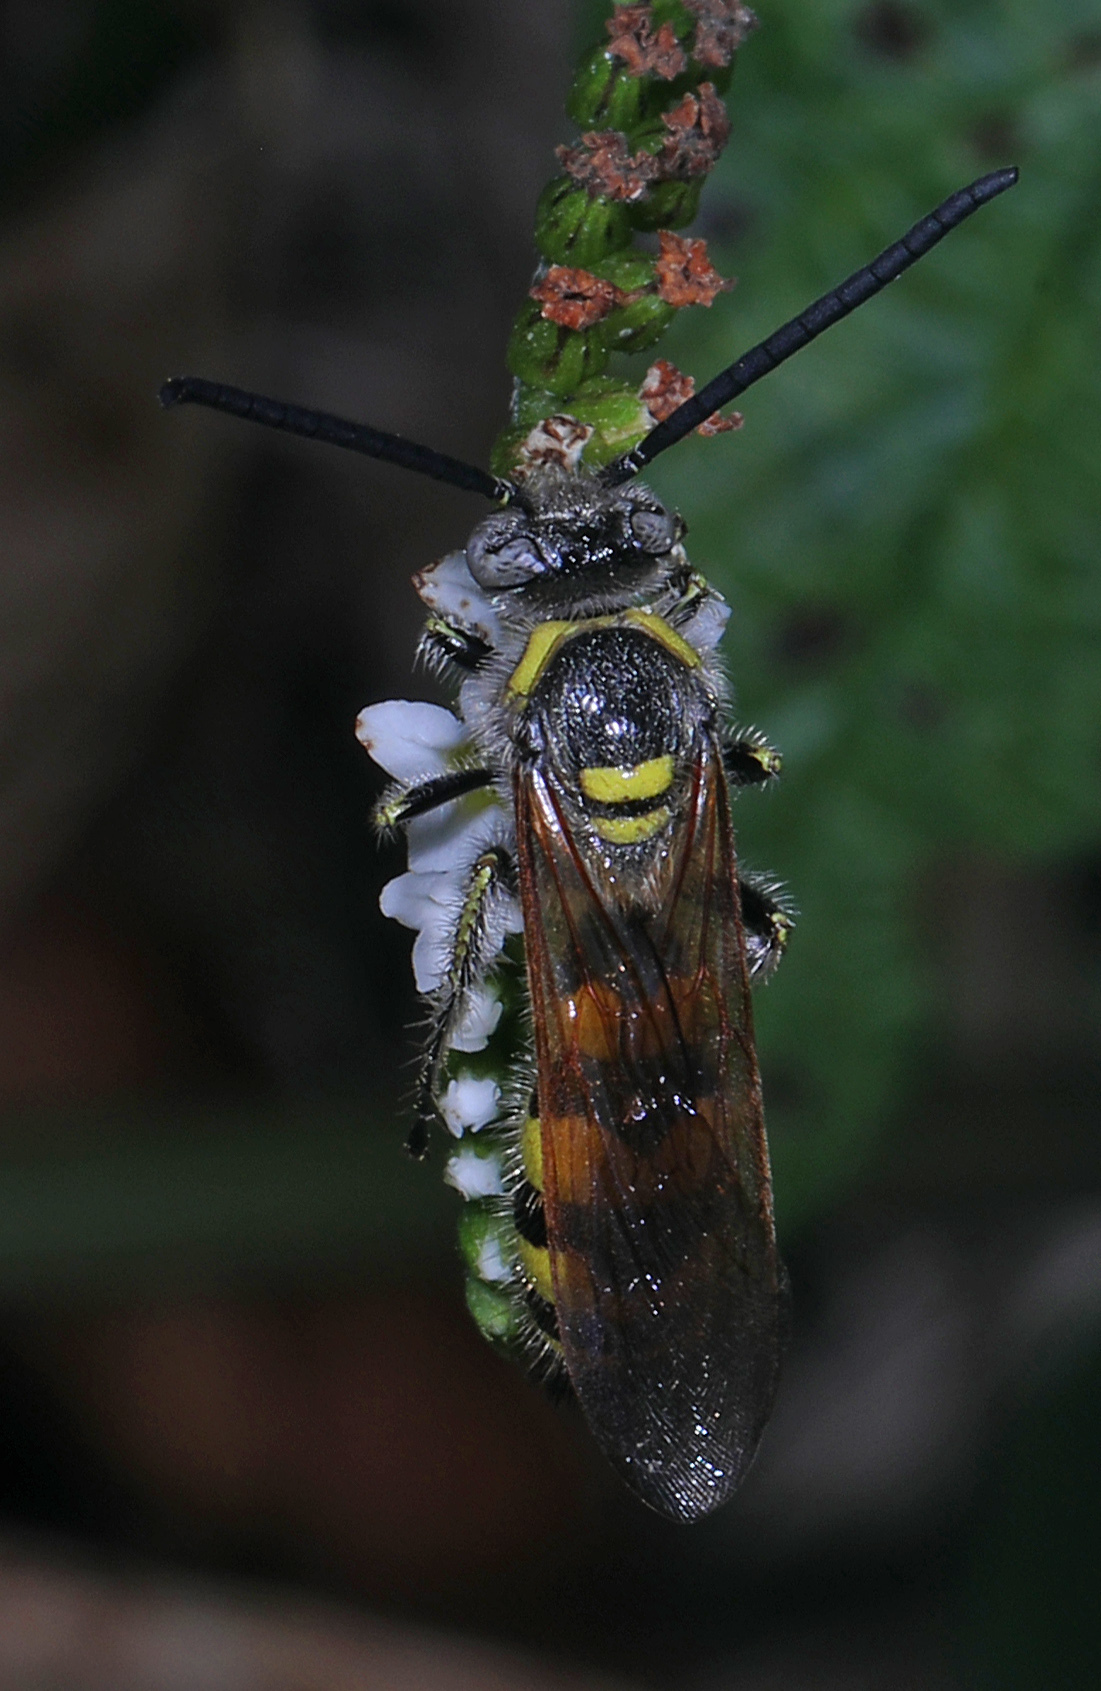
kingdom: Animalia
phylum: Arthropoda
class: Insecta
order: Hymenoptera
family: Scoliidae
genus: Dielis
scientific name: Dielis
